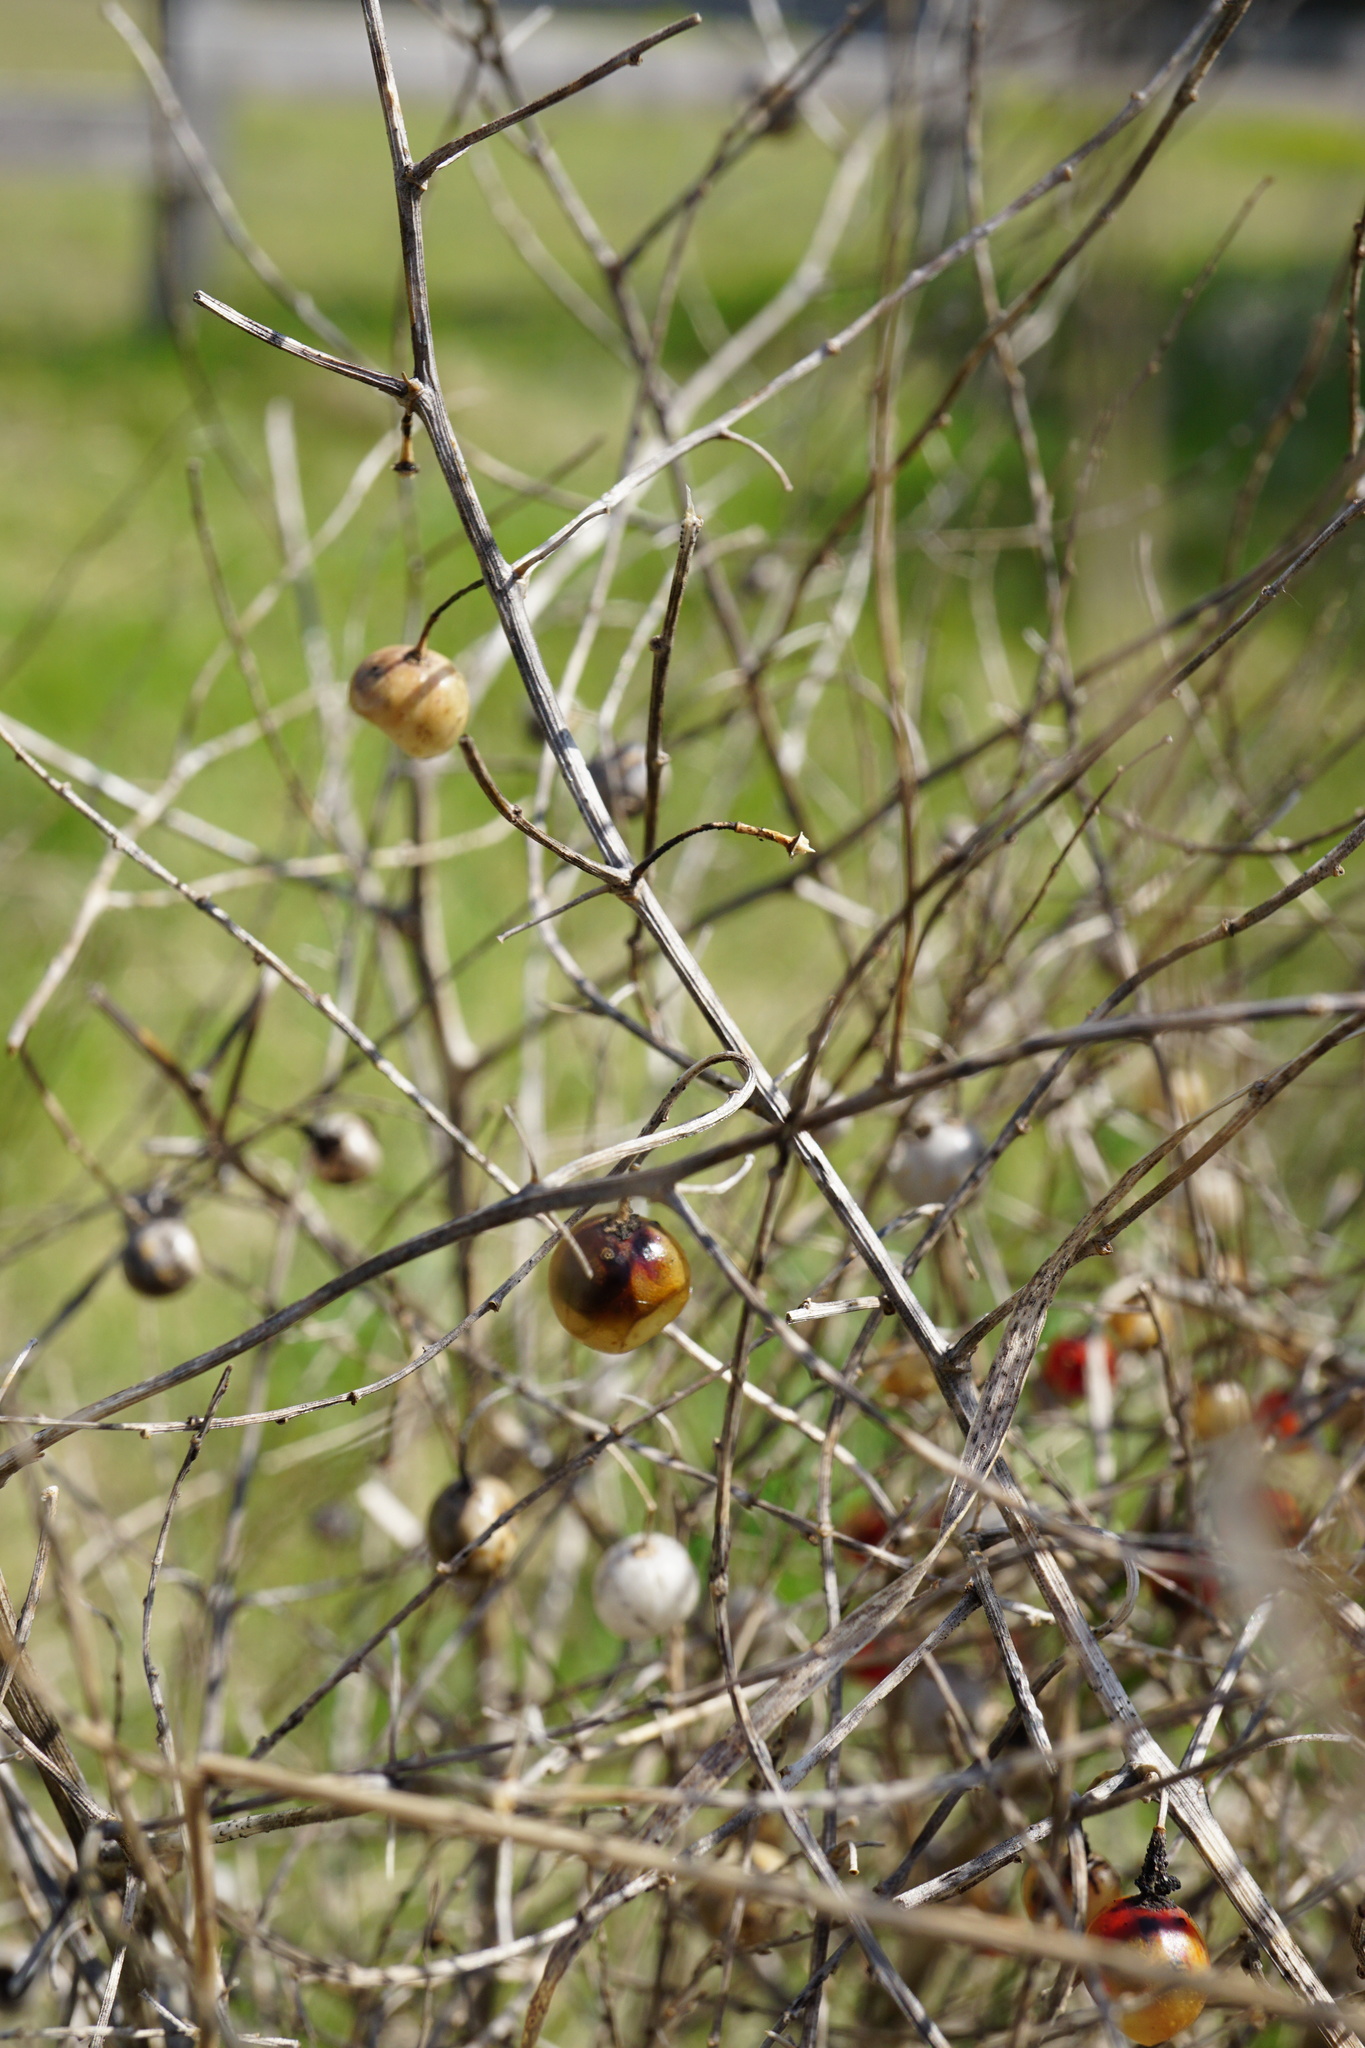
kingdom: Plantae
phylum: Tracheophyta
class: Liliopsida
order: Asparagales
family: Asparagaceae
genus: Asparagus
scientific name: Asparagus officinalis
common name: Garden asparagus
